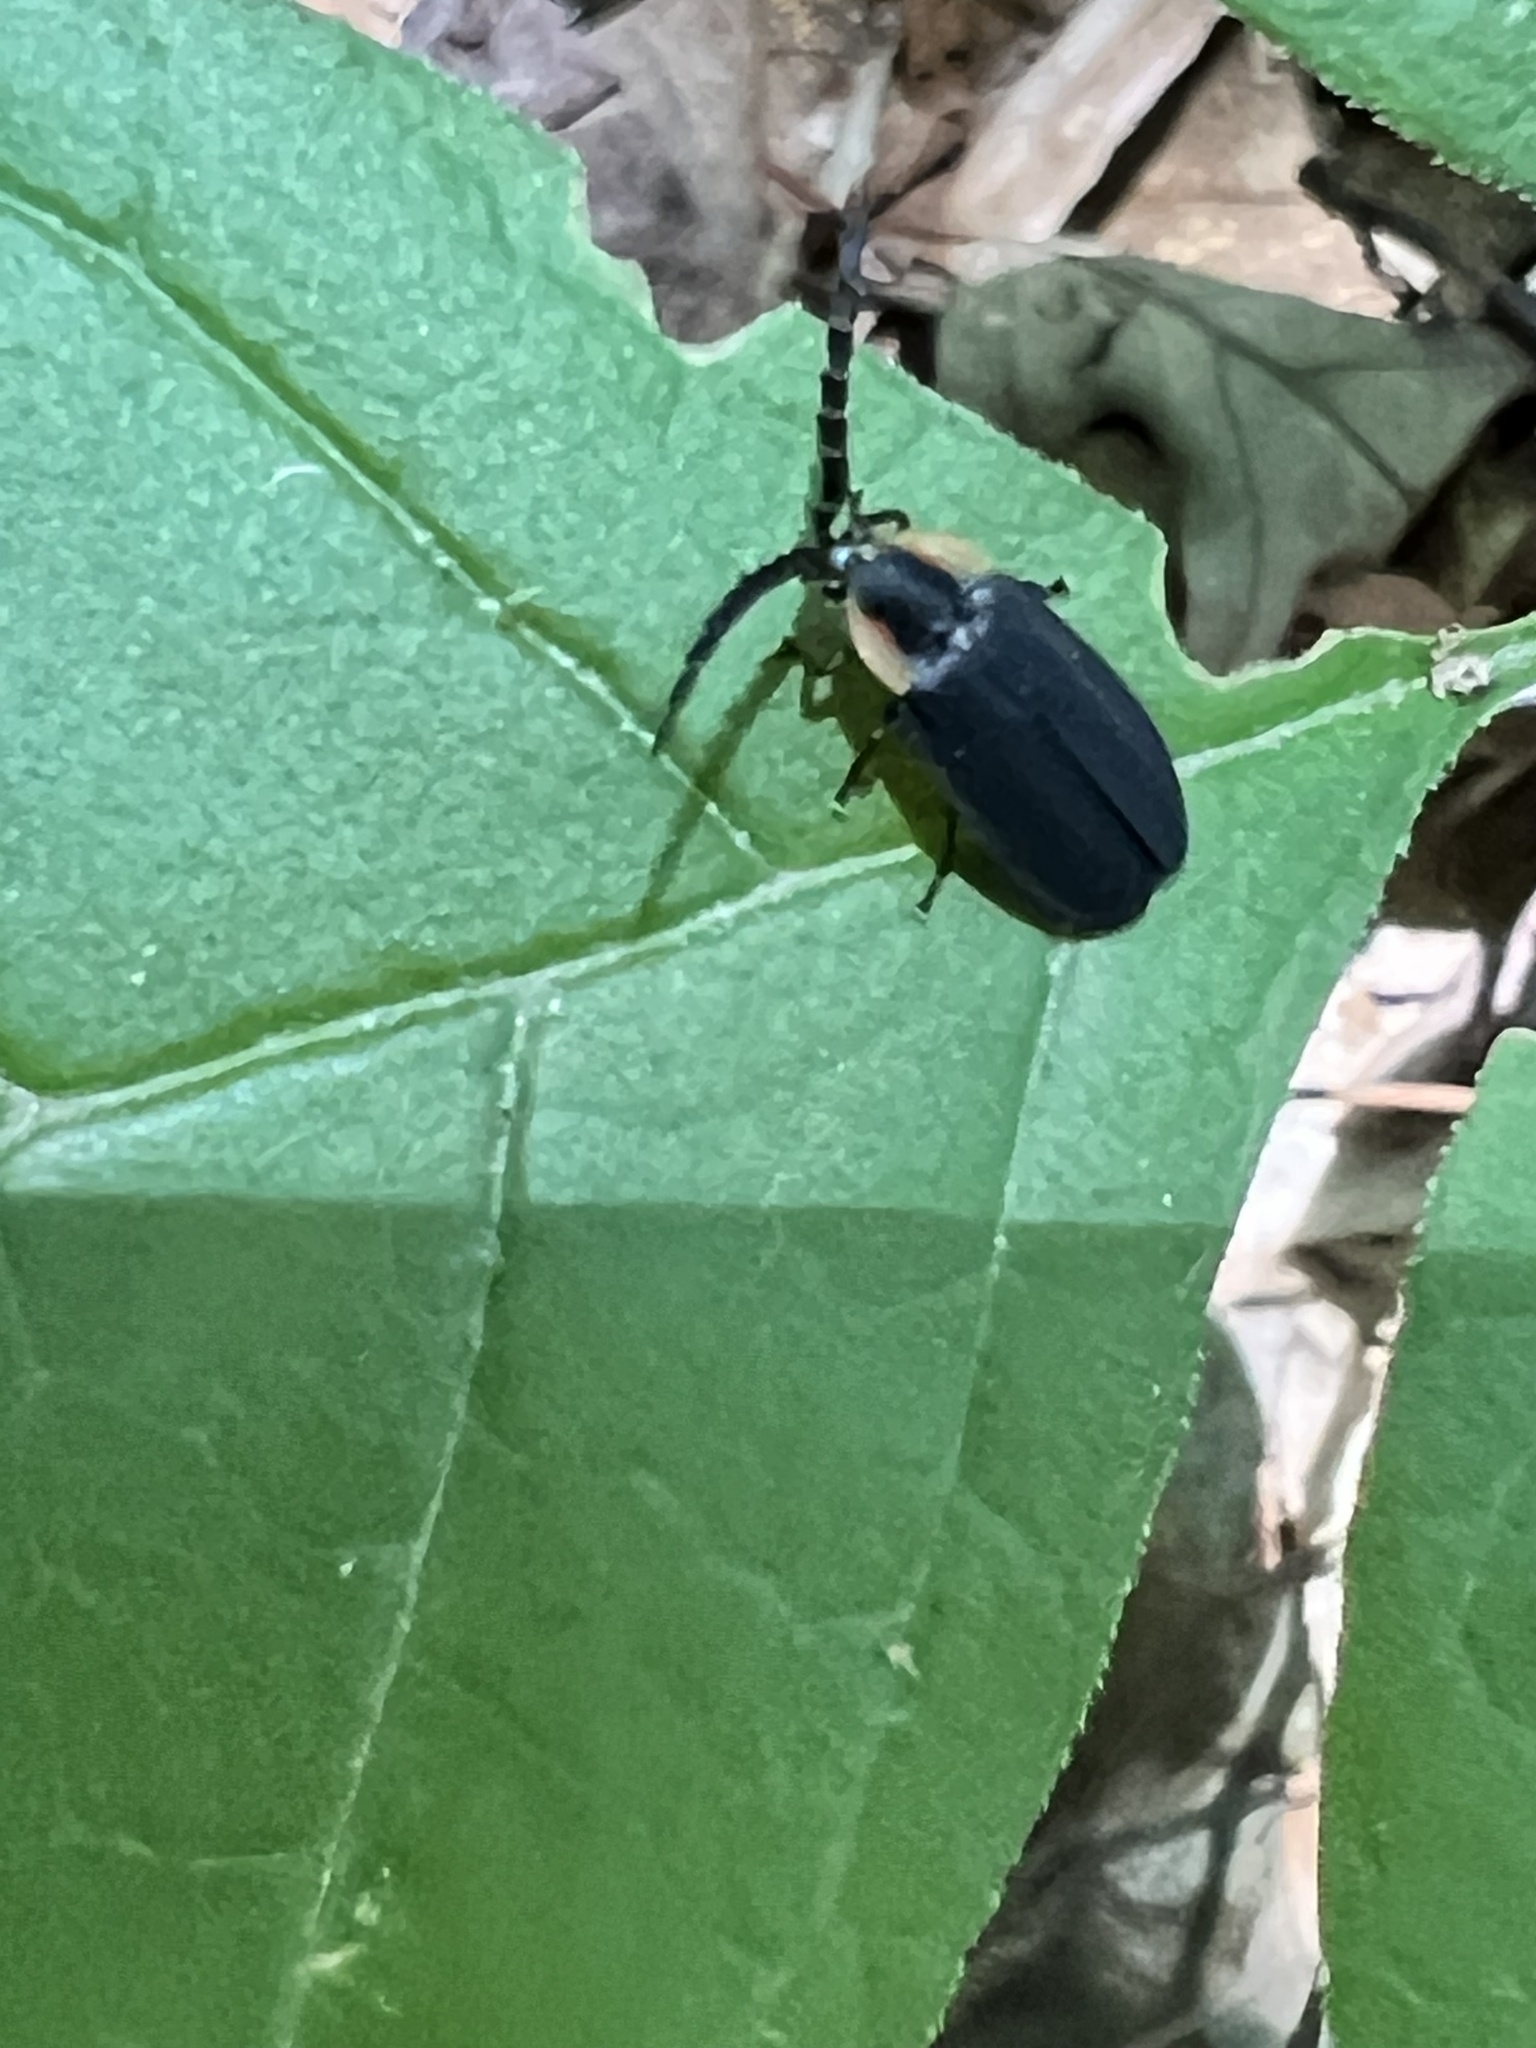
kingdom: Animalia
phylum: Arthropoda
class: Insecta
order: Coleoptera
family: Lampyridae
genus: Lucidota
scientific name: Lucidota atra
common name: Black firefly
